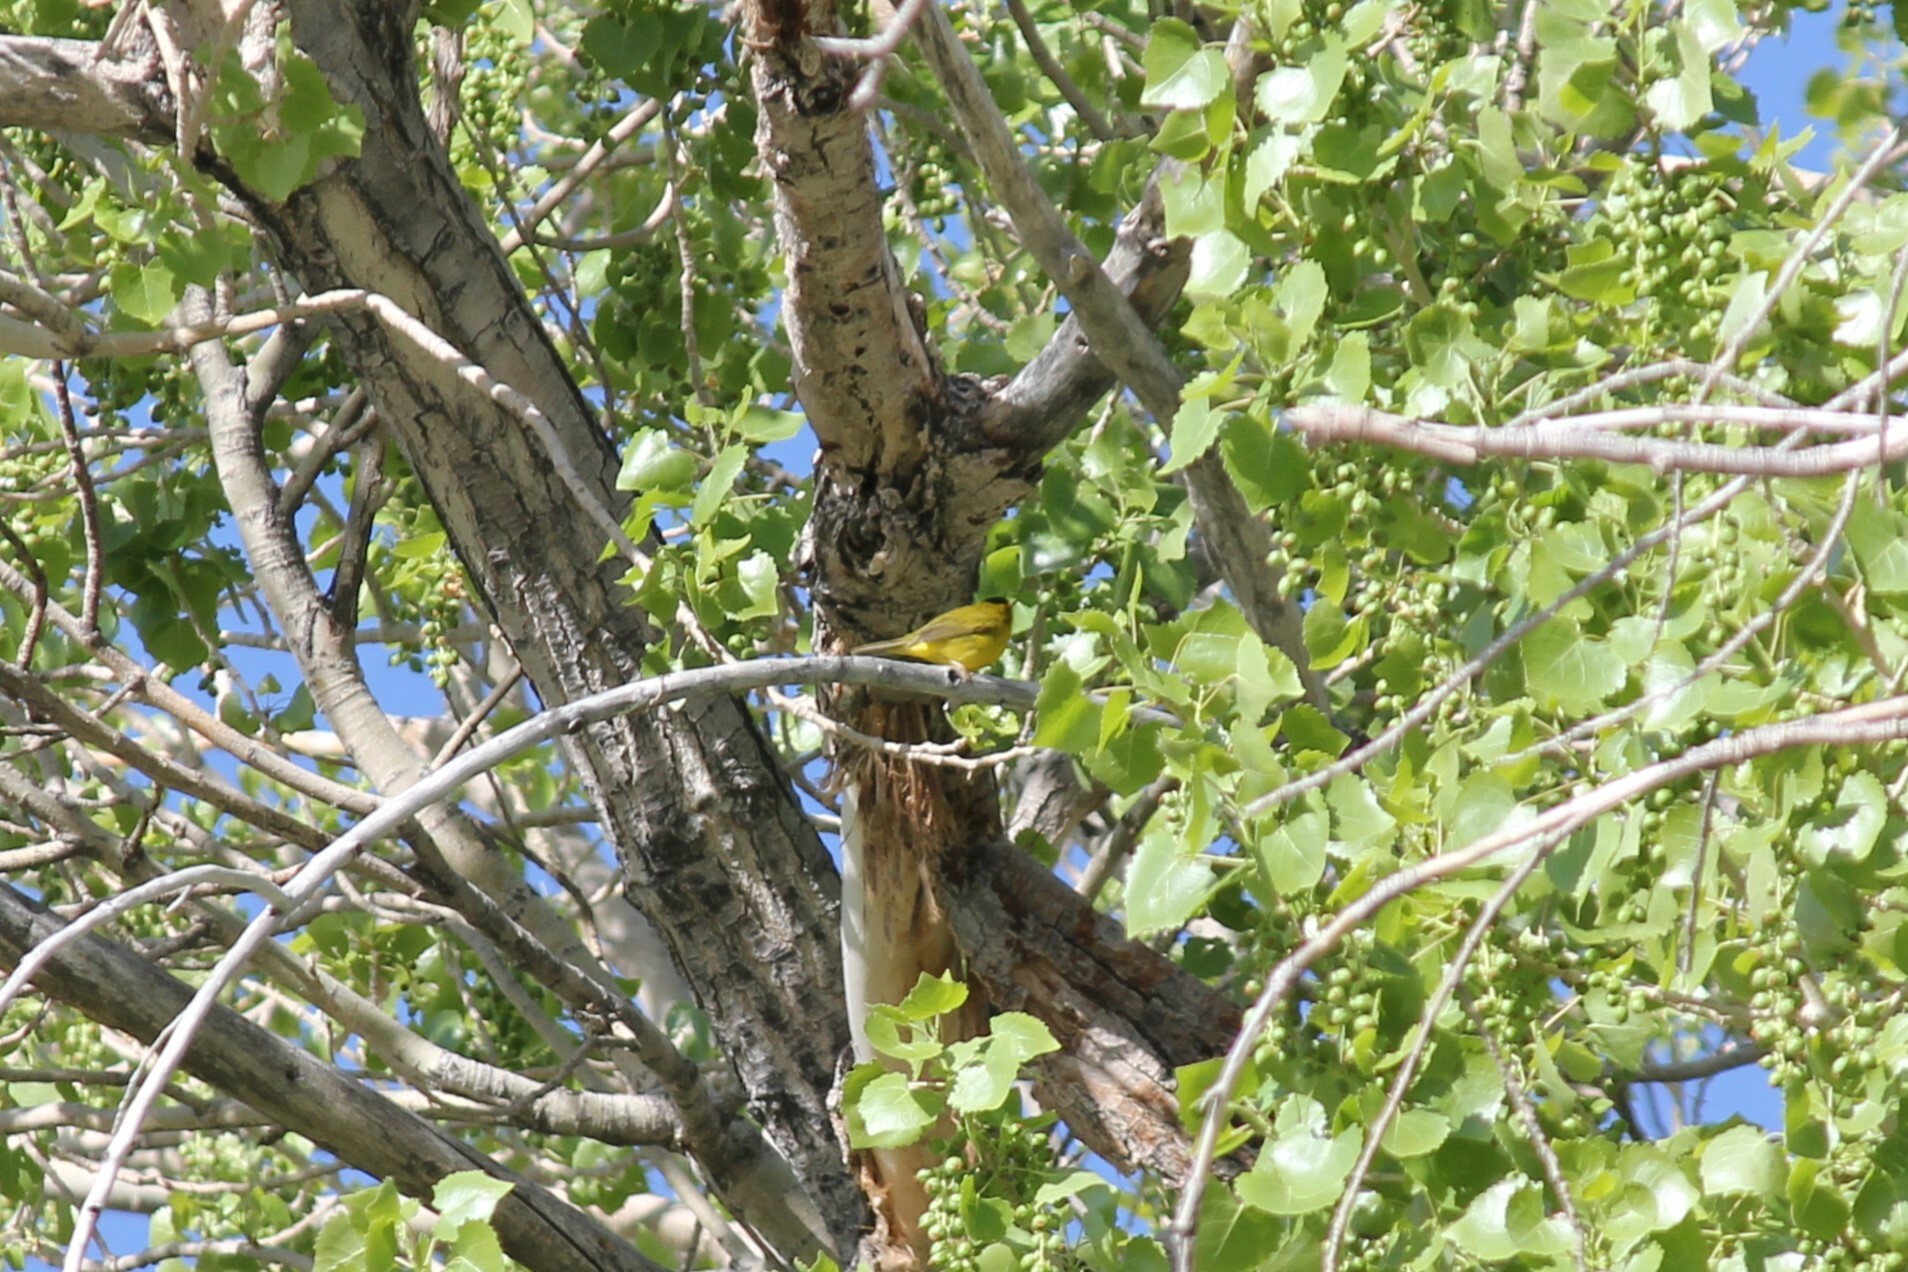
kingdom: Animalia
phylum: Chordata
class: Aves
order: Passeriformes
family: Parulidae
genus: Cardellina
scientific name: Cardellina pusilla
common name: Wilson's warbler
